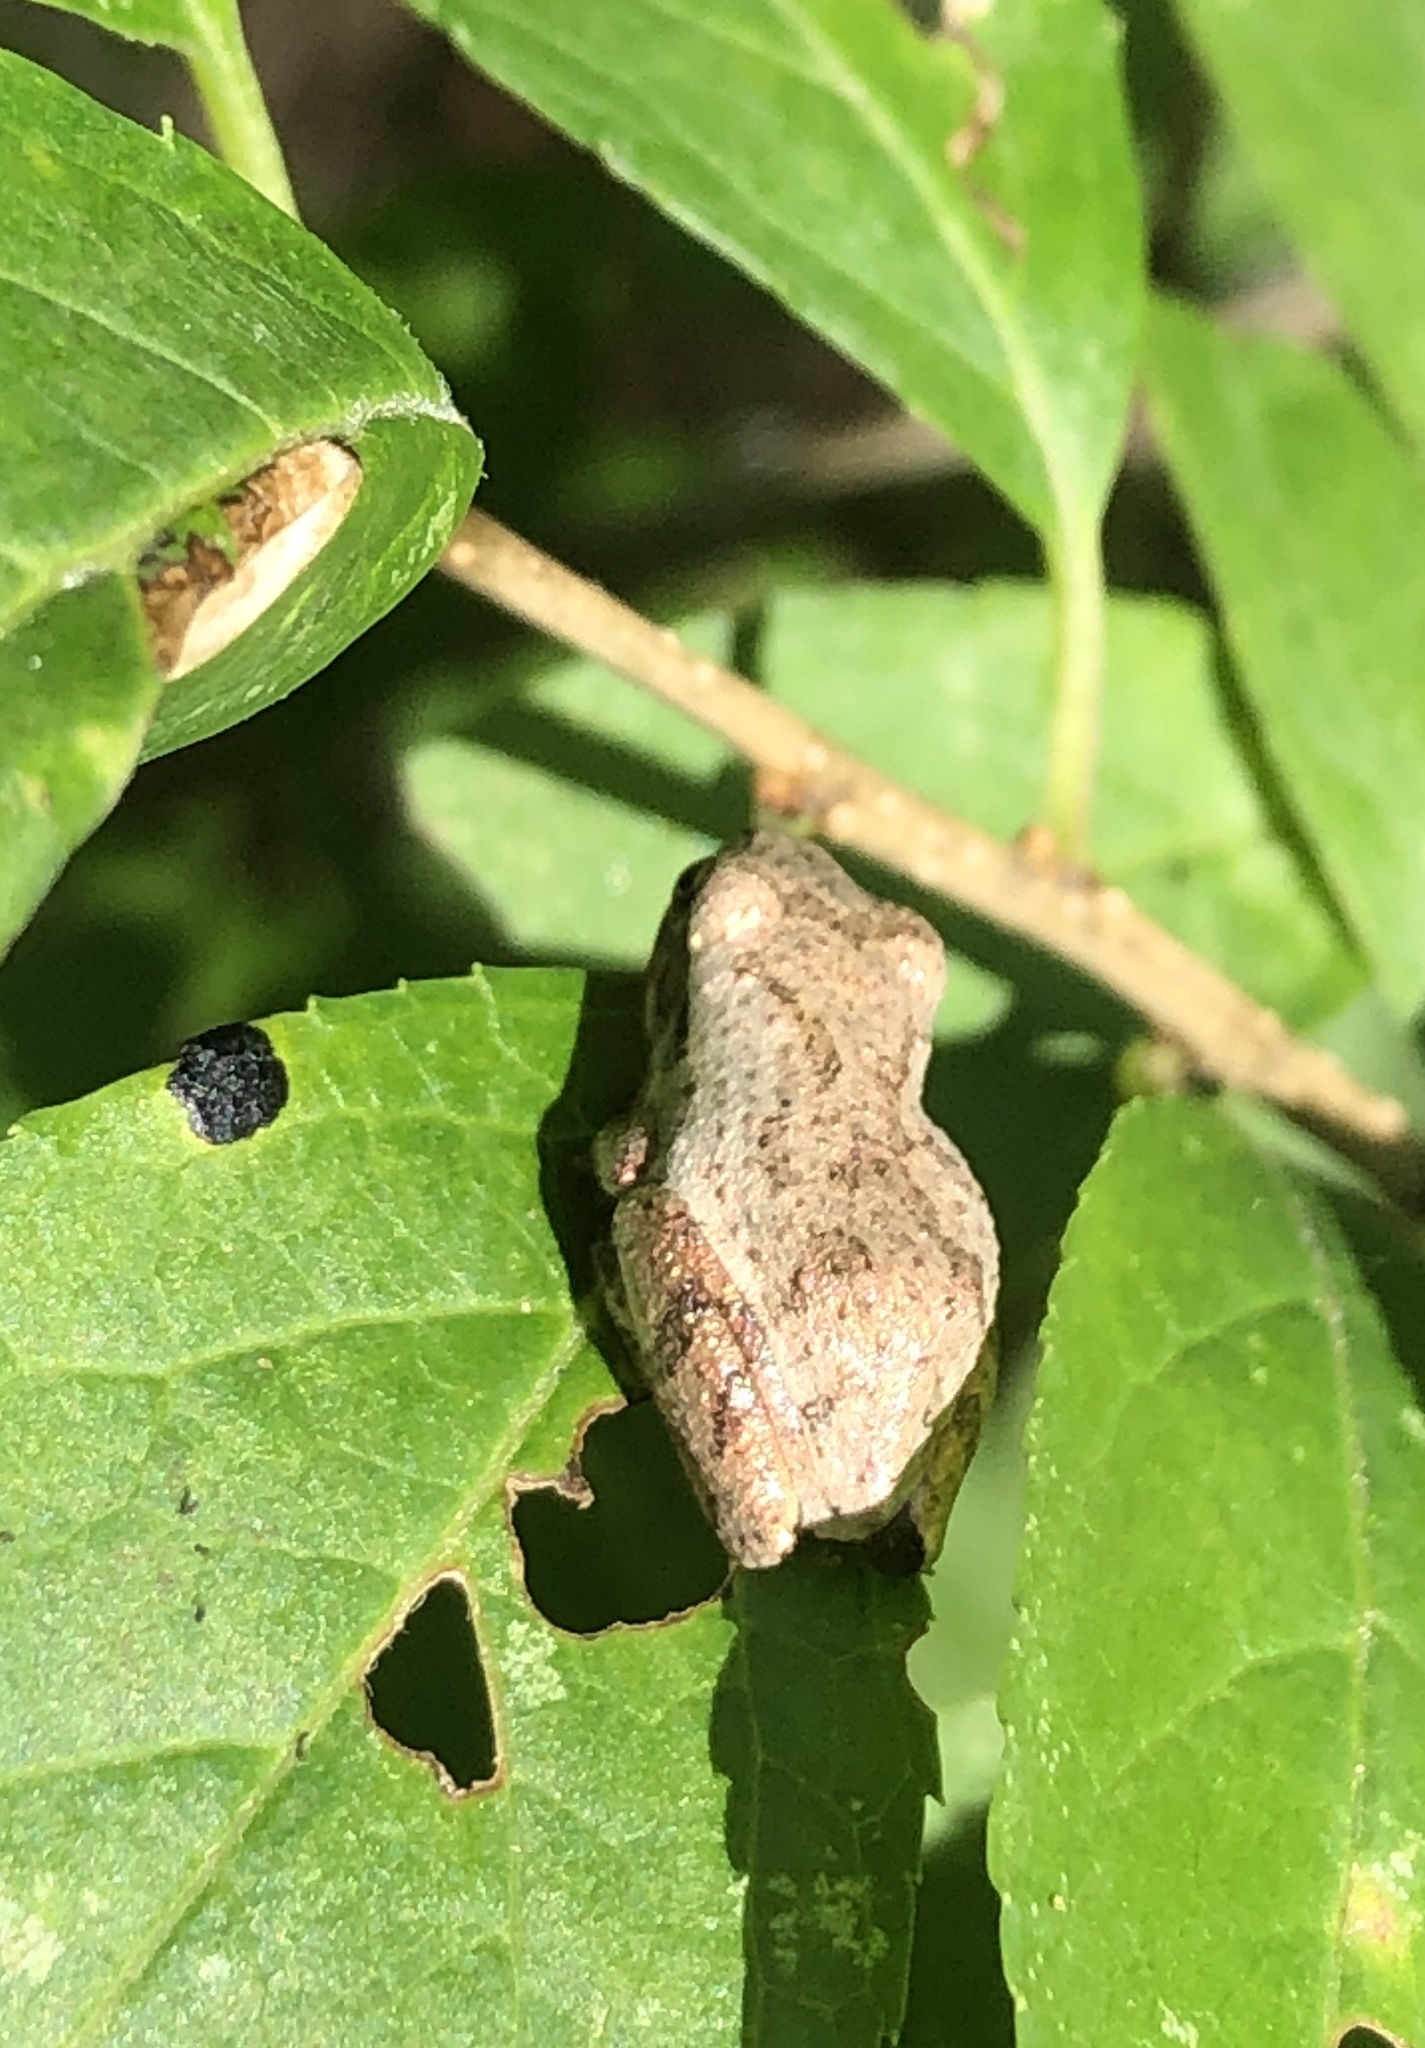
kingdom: Animalia
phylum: Chordata
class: Amphibia
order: Anura
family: Hylidae
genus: Pseudacris
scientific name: Pseudacris crucifer
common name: Spring peeper
